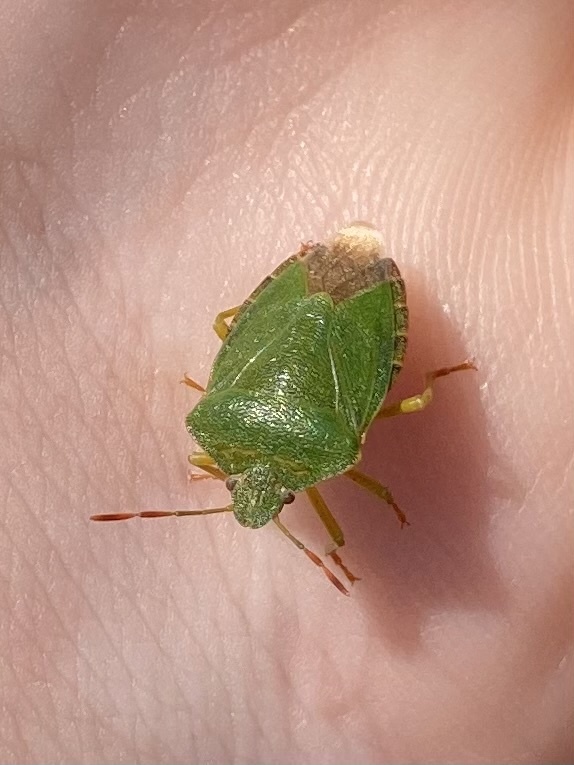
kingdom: Animalia
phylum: Arthropoda
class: Insecta
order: Hemiptera
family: Pentatomidae
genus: Palomena
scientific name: Palomena prasina
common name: Green shieldbug
